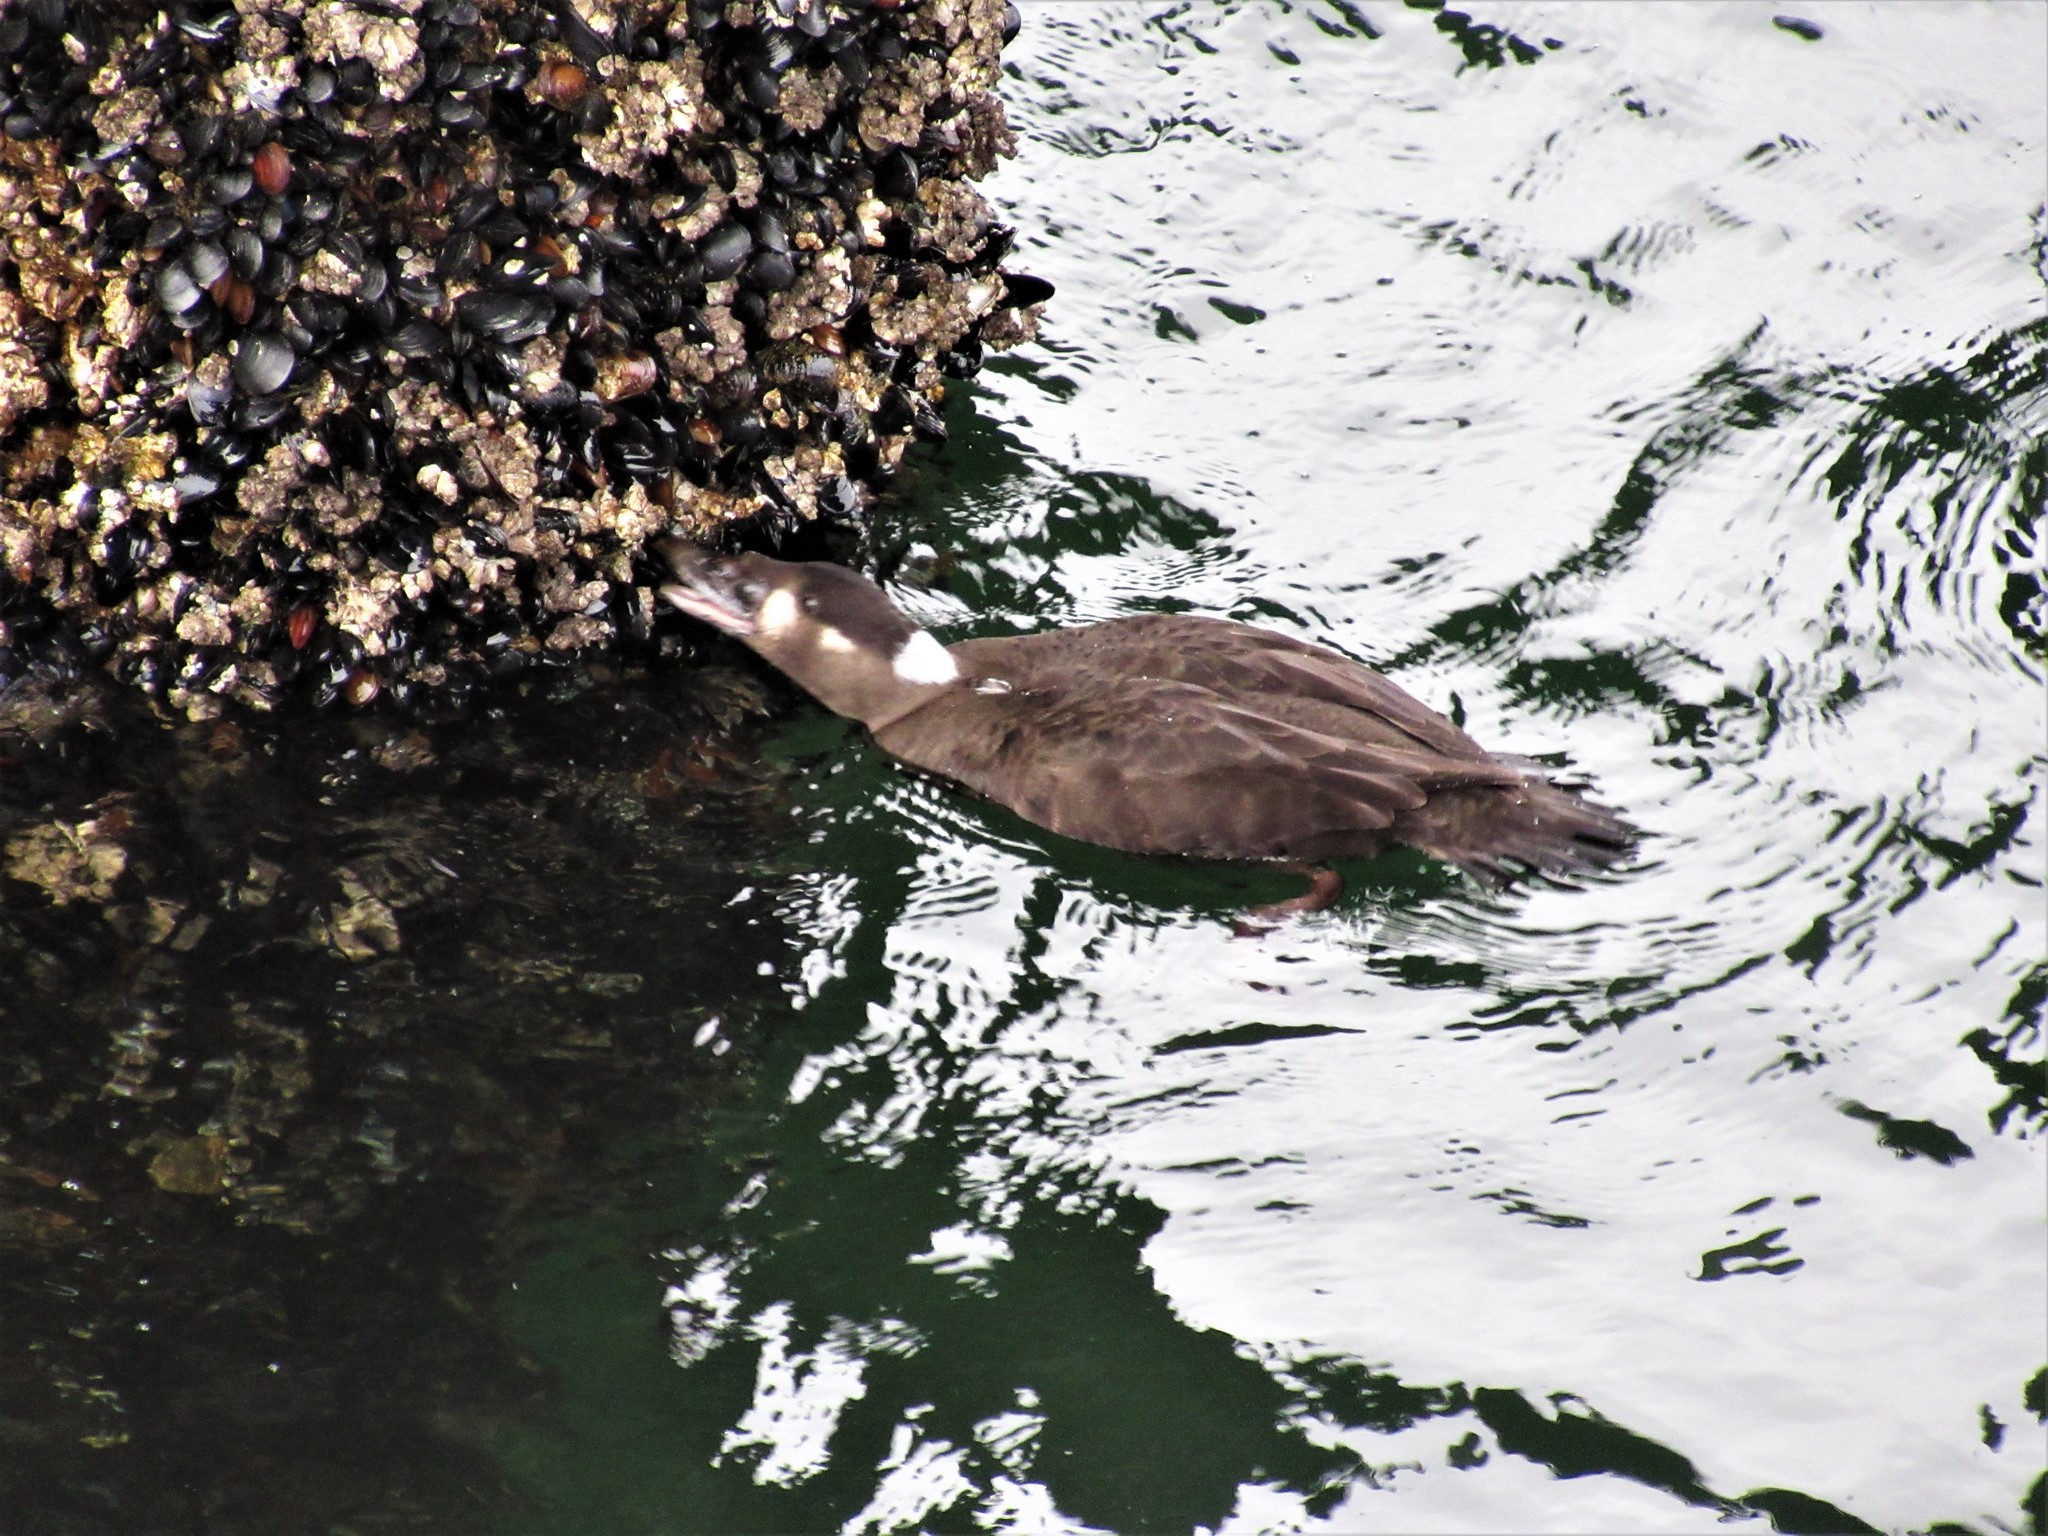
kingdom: Animalia
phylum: Chordata
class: Aves
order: Anseriformes
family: Anatidae
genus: Melanitta
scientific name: Melanitta perspicillata
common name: Surf scoter
